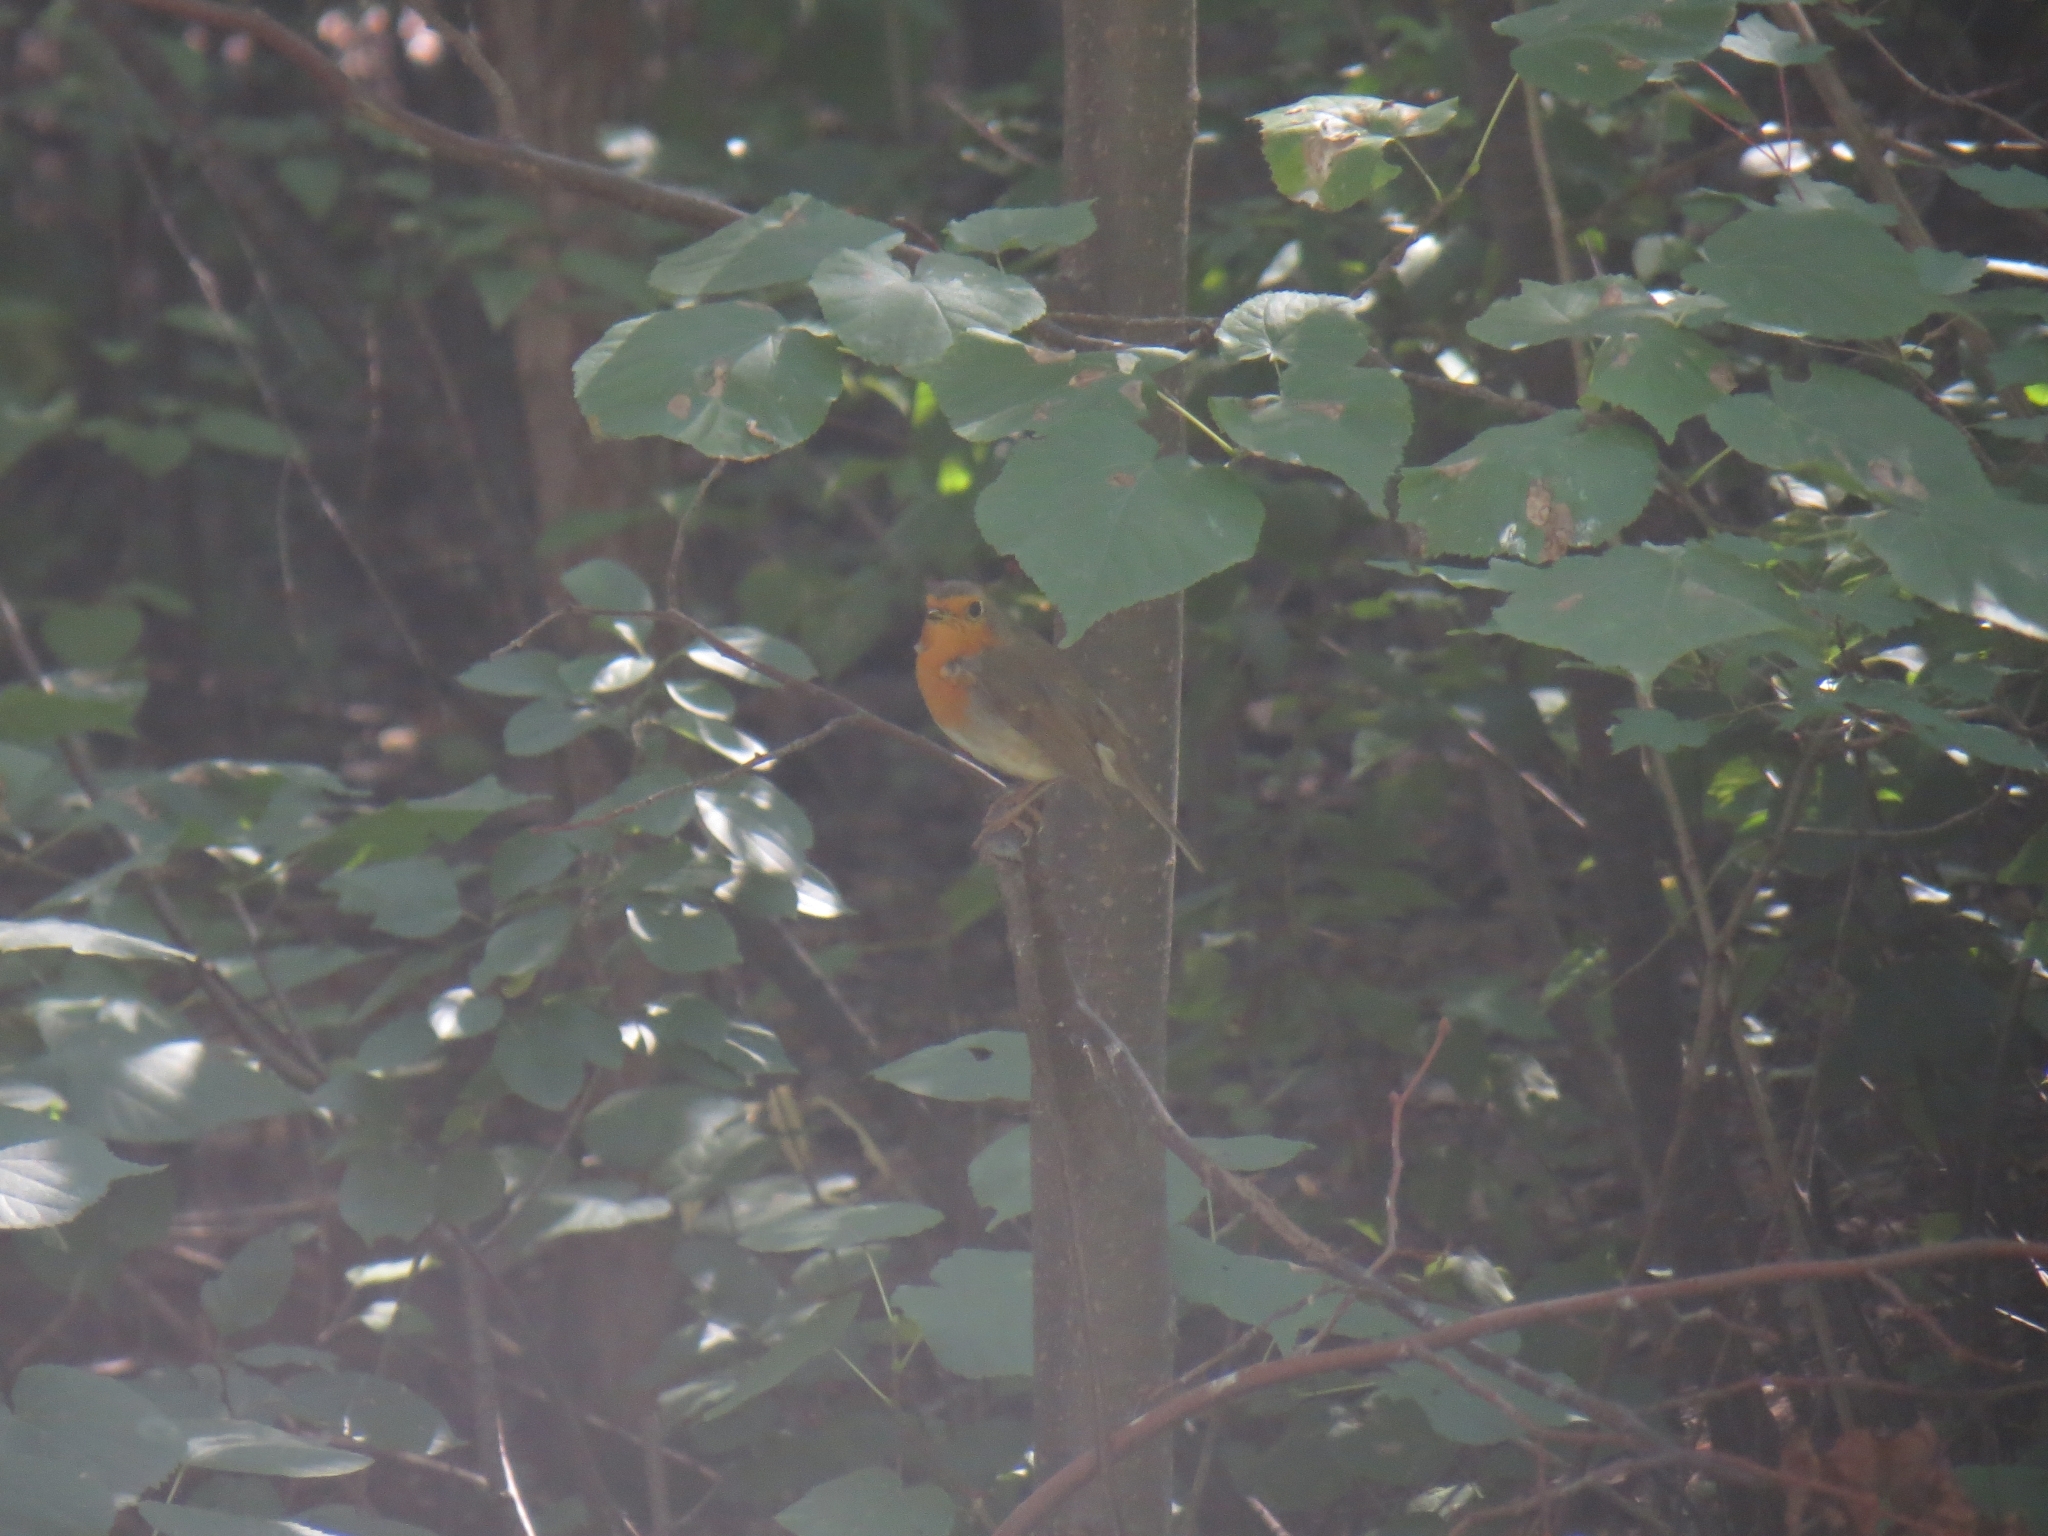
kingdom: Animalia
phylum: Chordata
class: Aves
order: Passeriformes
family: Muscicapidae
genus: Erithacus
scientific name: Erithacus rubecula
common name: European robin
